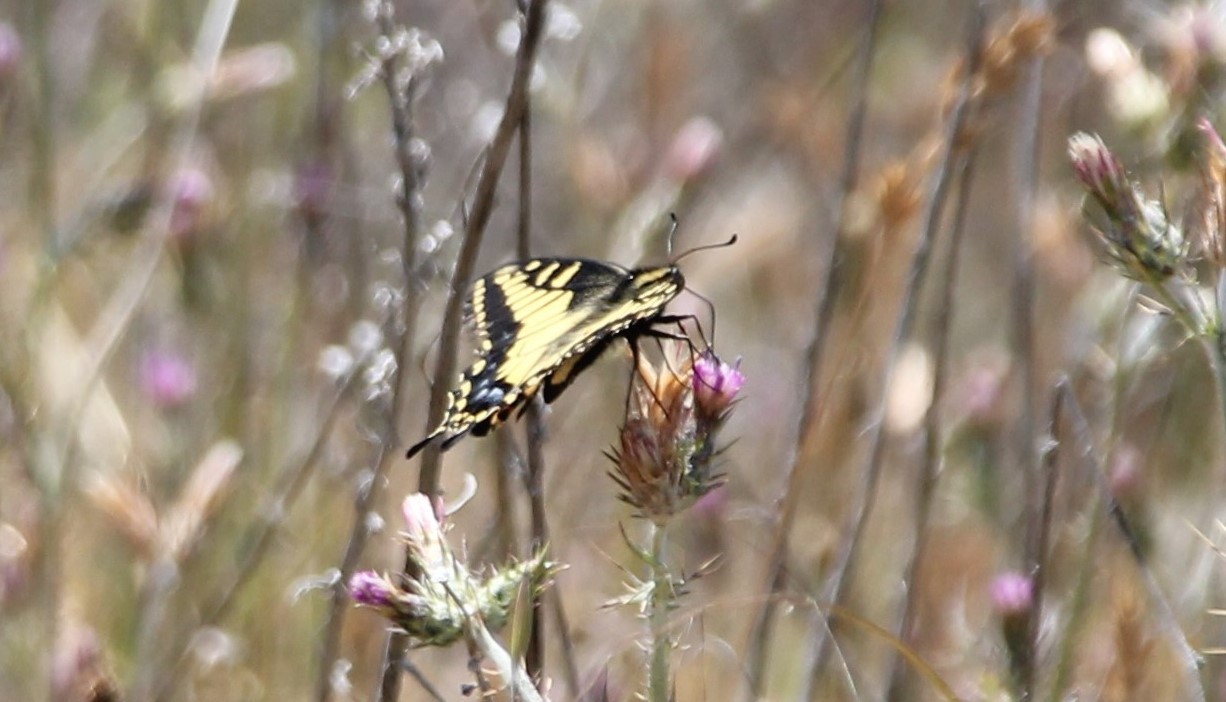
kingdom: Animalia
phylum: Arthropoda
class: Insecta
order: Lepidoptera
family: Papilionidae
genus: Papilio
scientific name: Papilio zelicaon
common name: Anise swallowtail
